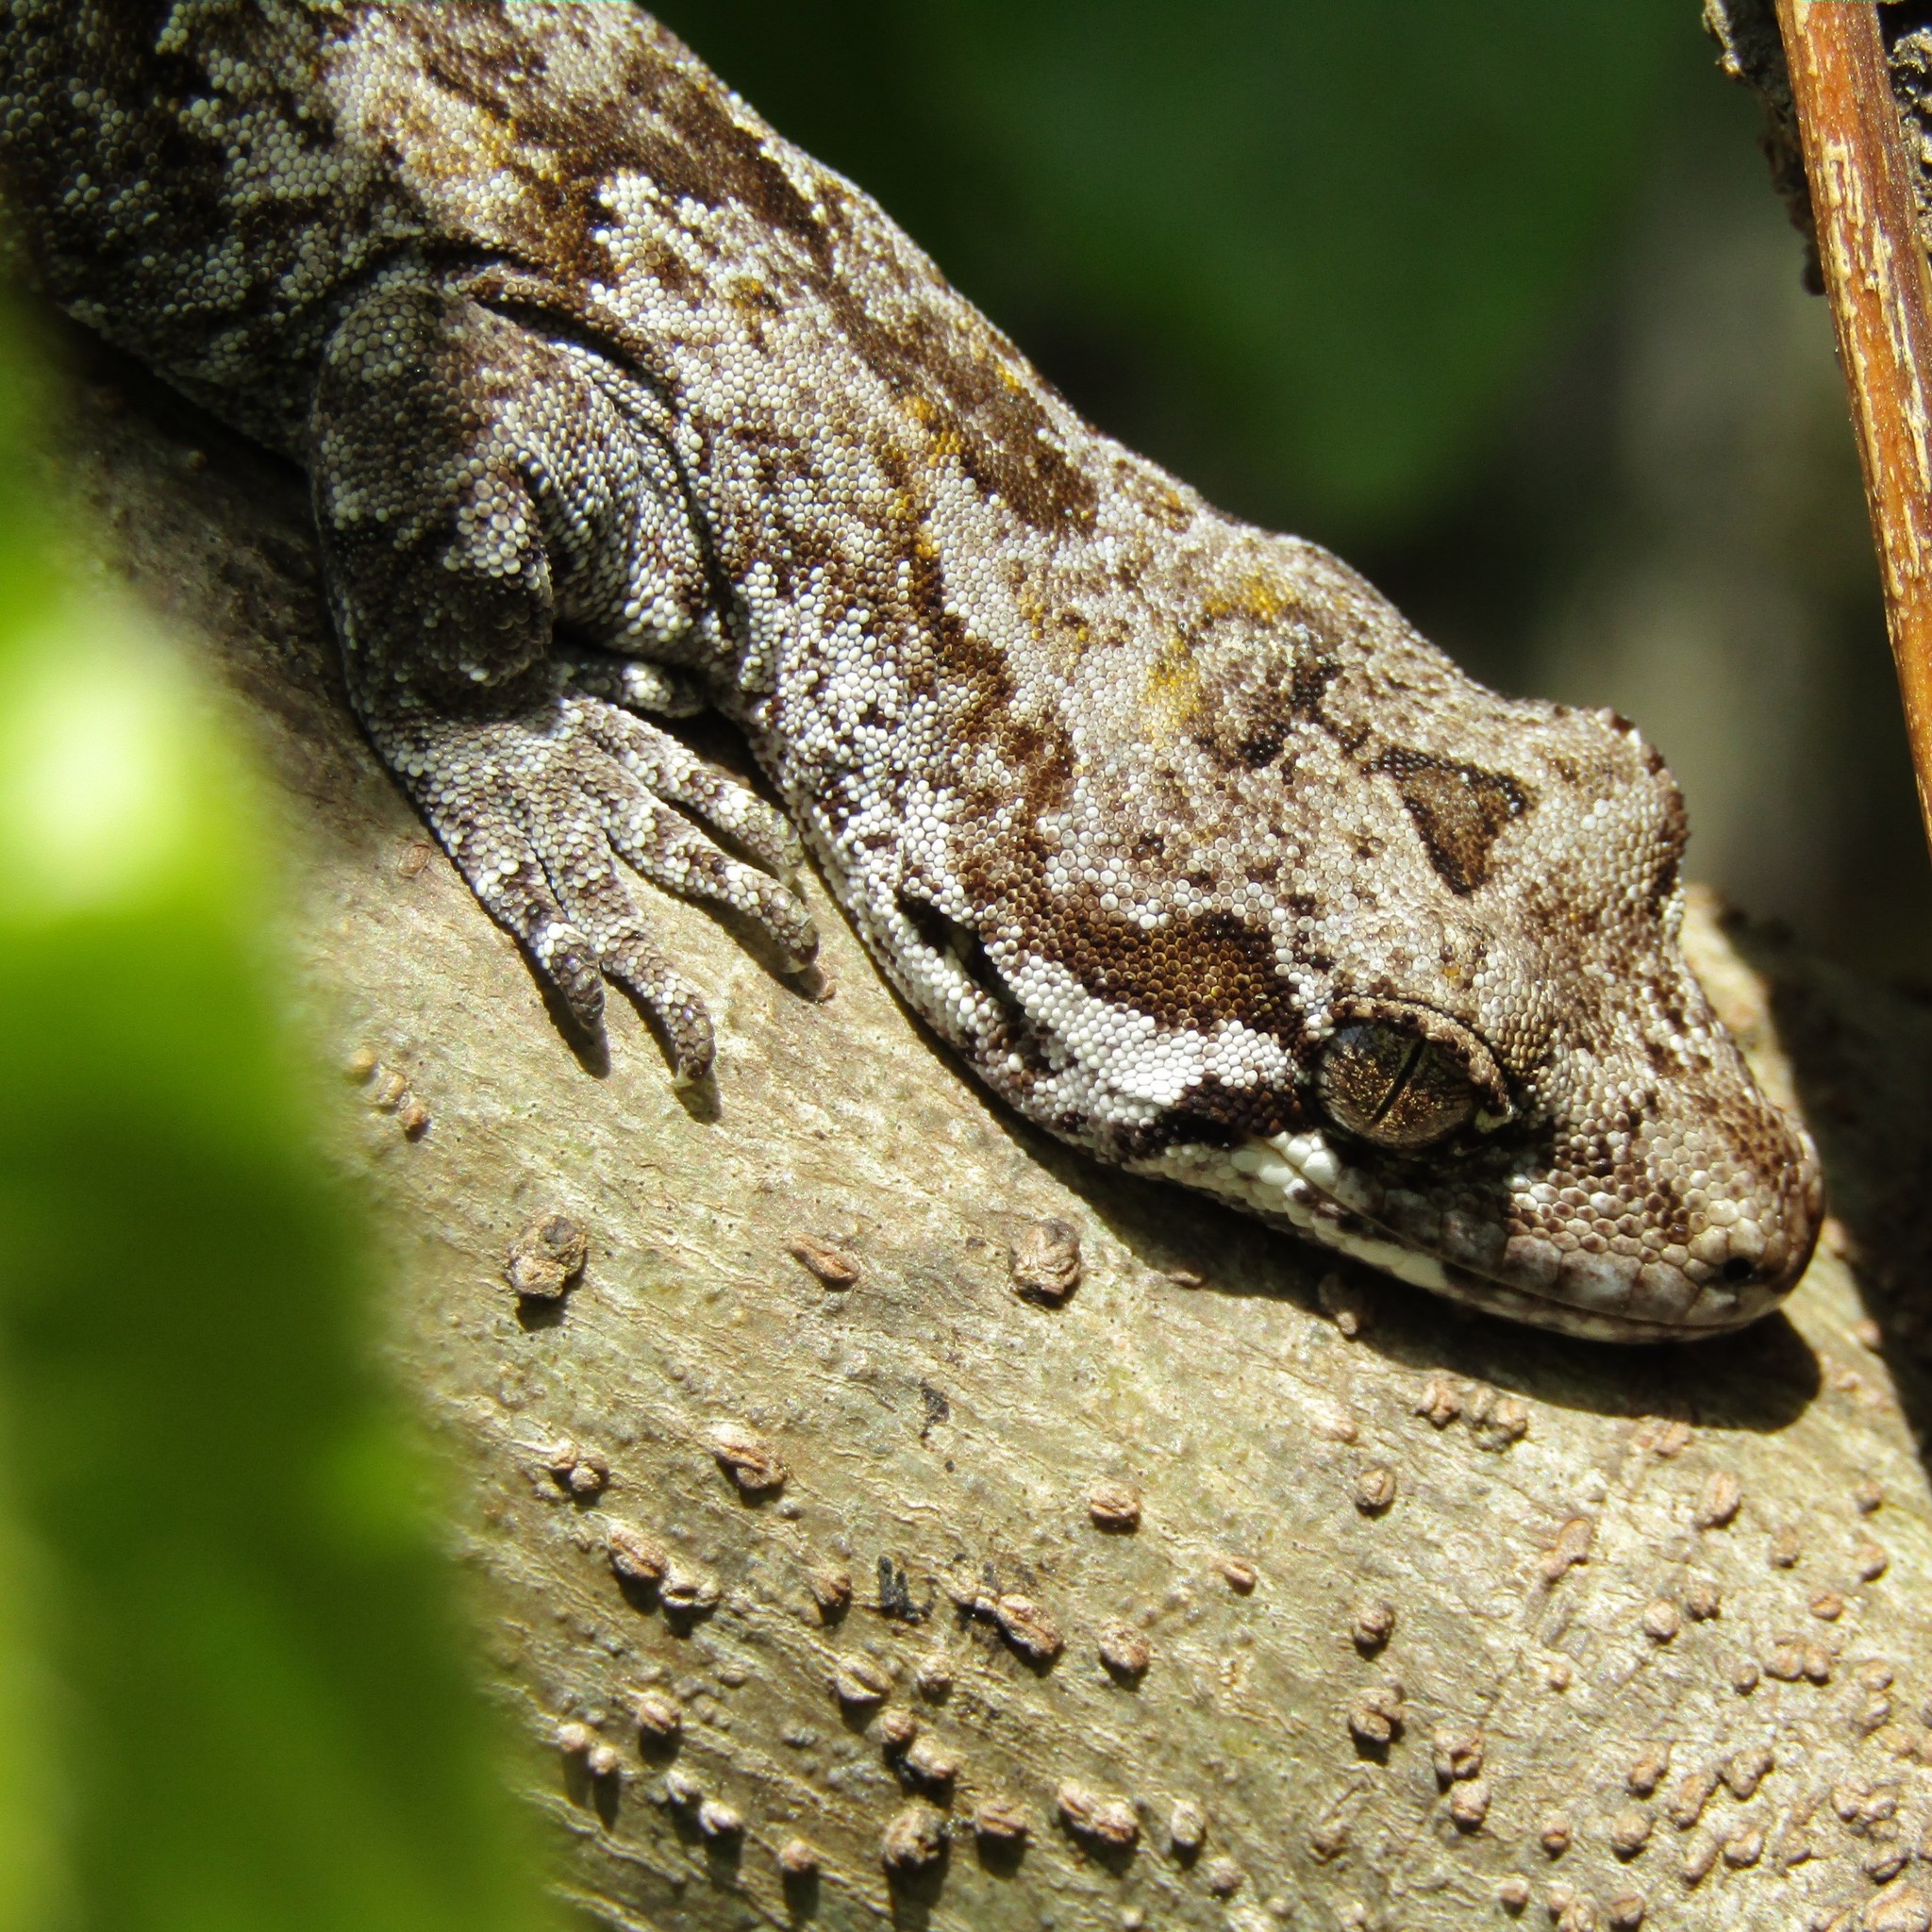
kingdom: Animalia
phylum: Chordata
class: Squamata
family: Diplodactylidae
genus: Mokopirirakau
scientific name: Mokopirirakau
